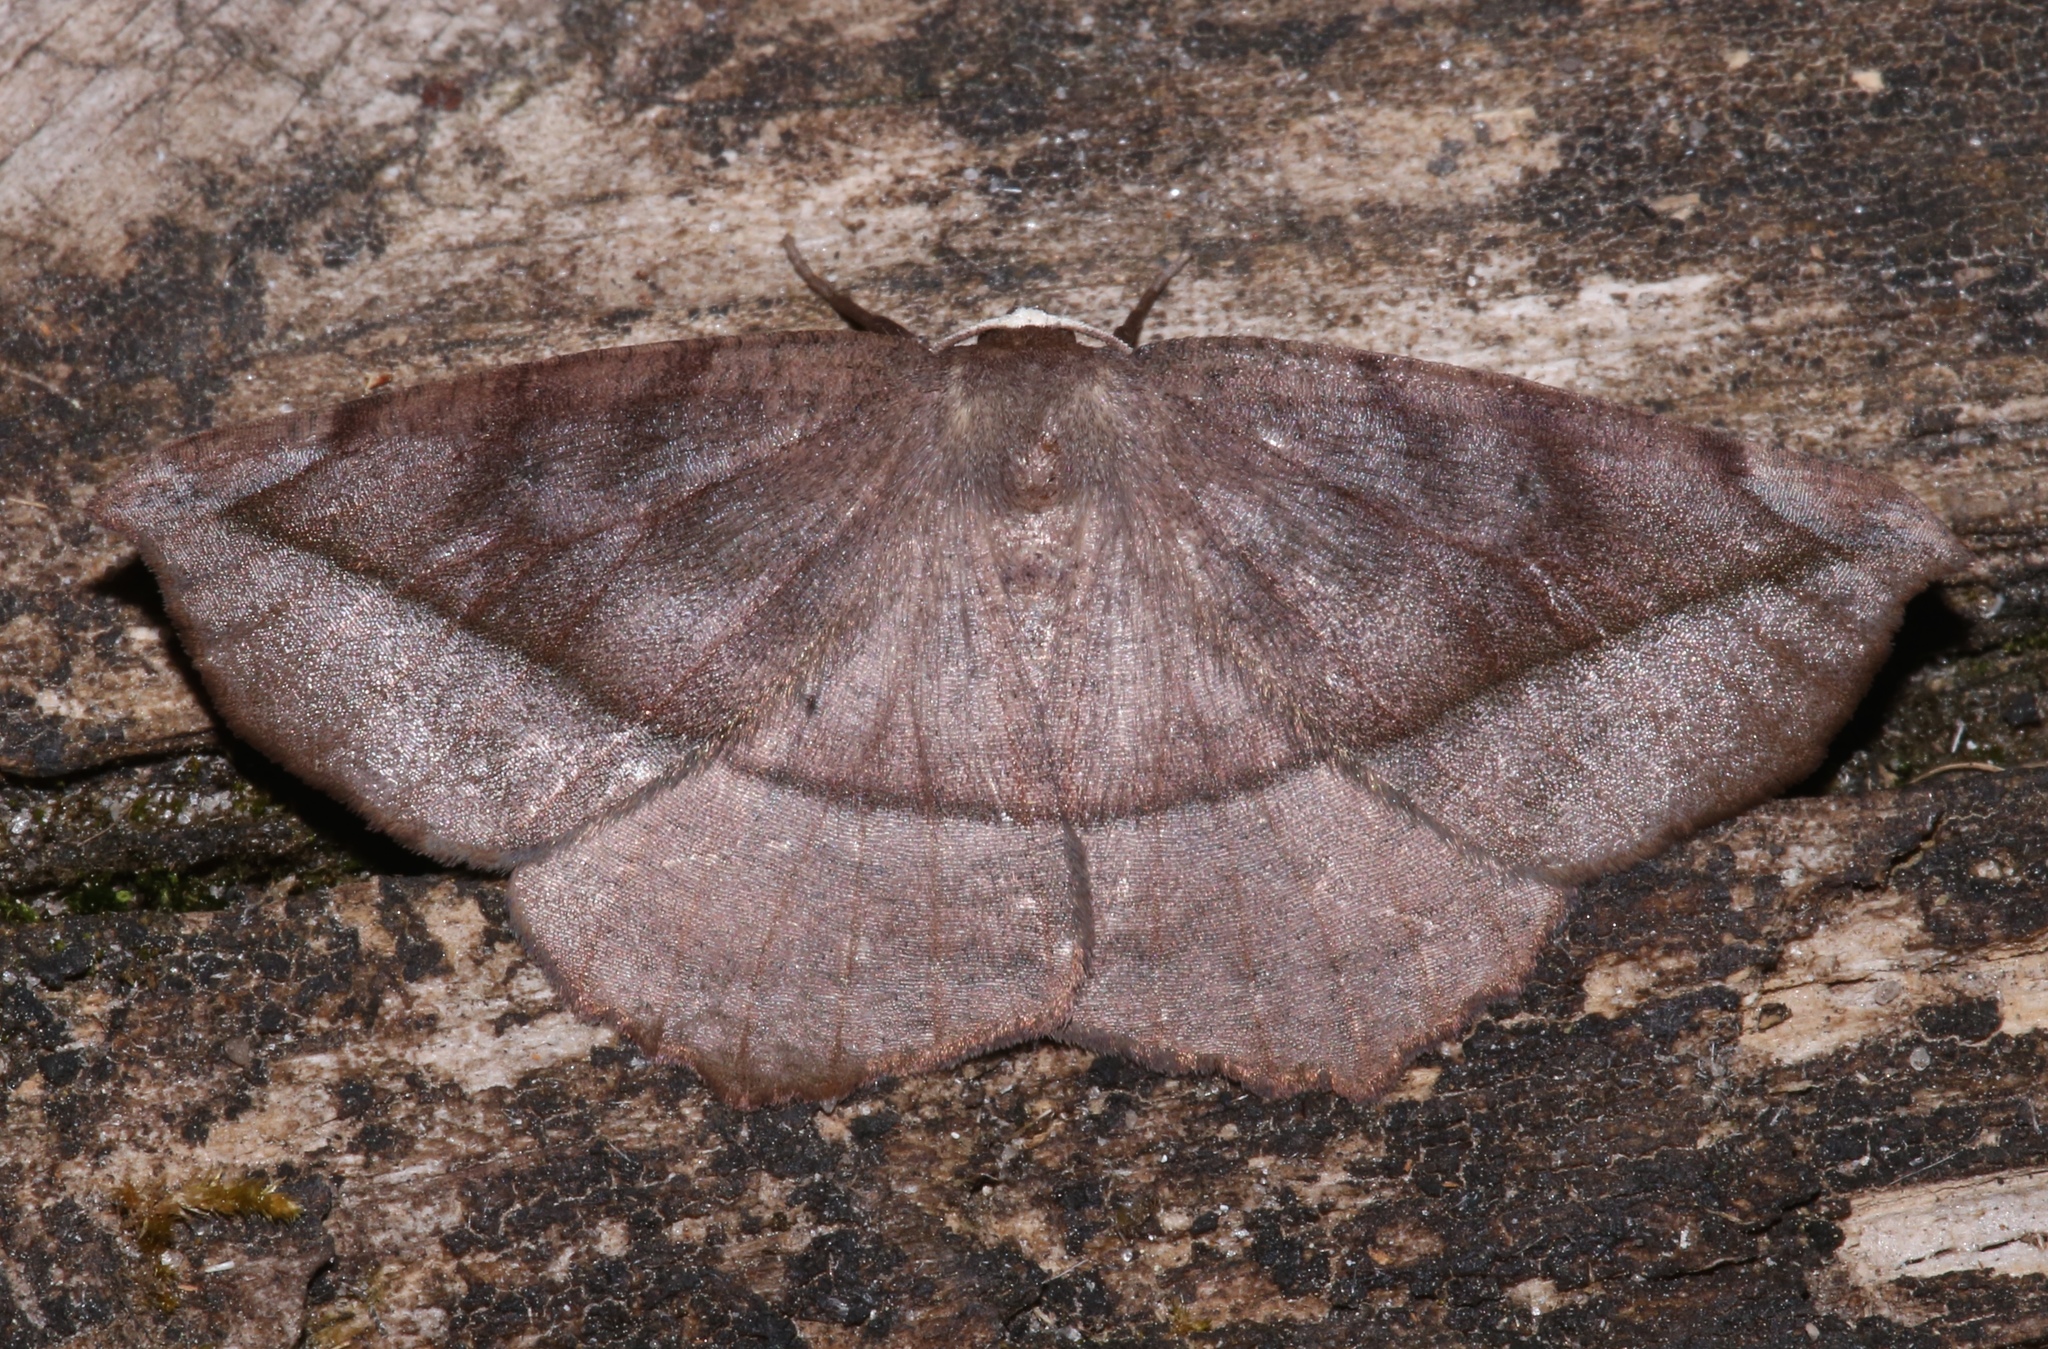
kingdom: Animalia
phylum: Arthropoda
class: Insecta
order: Lepidoptera
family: Geometridae
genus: Eutrapela
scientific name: Eutrapela clemataria
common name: Curved-toothed geometer
